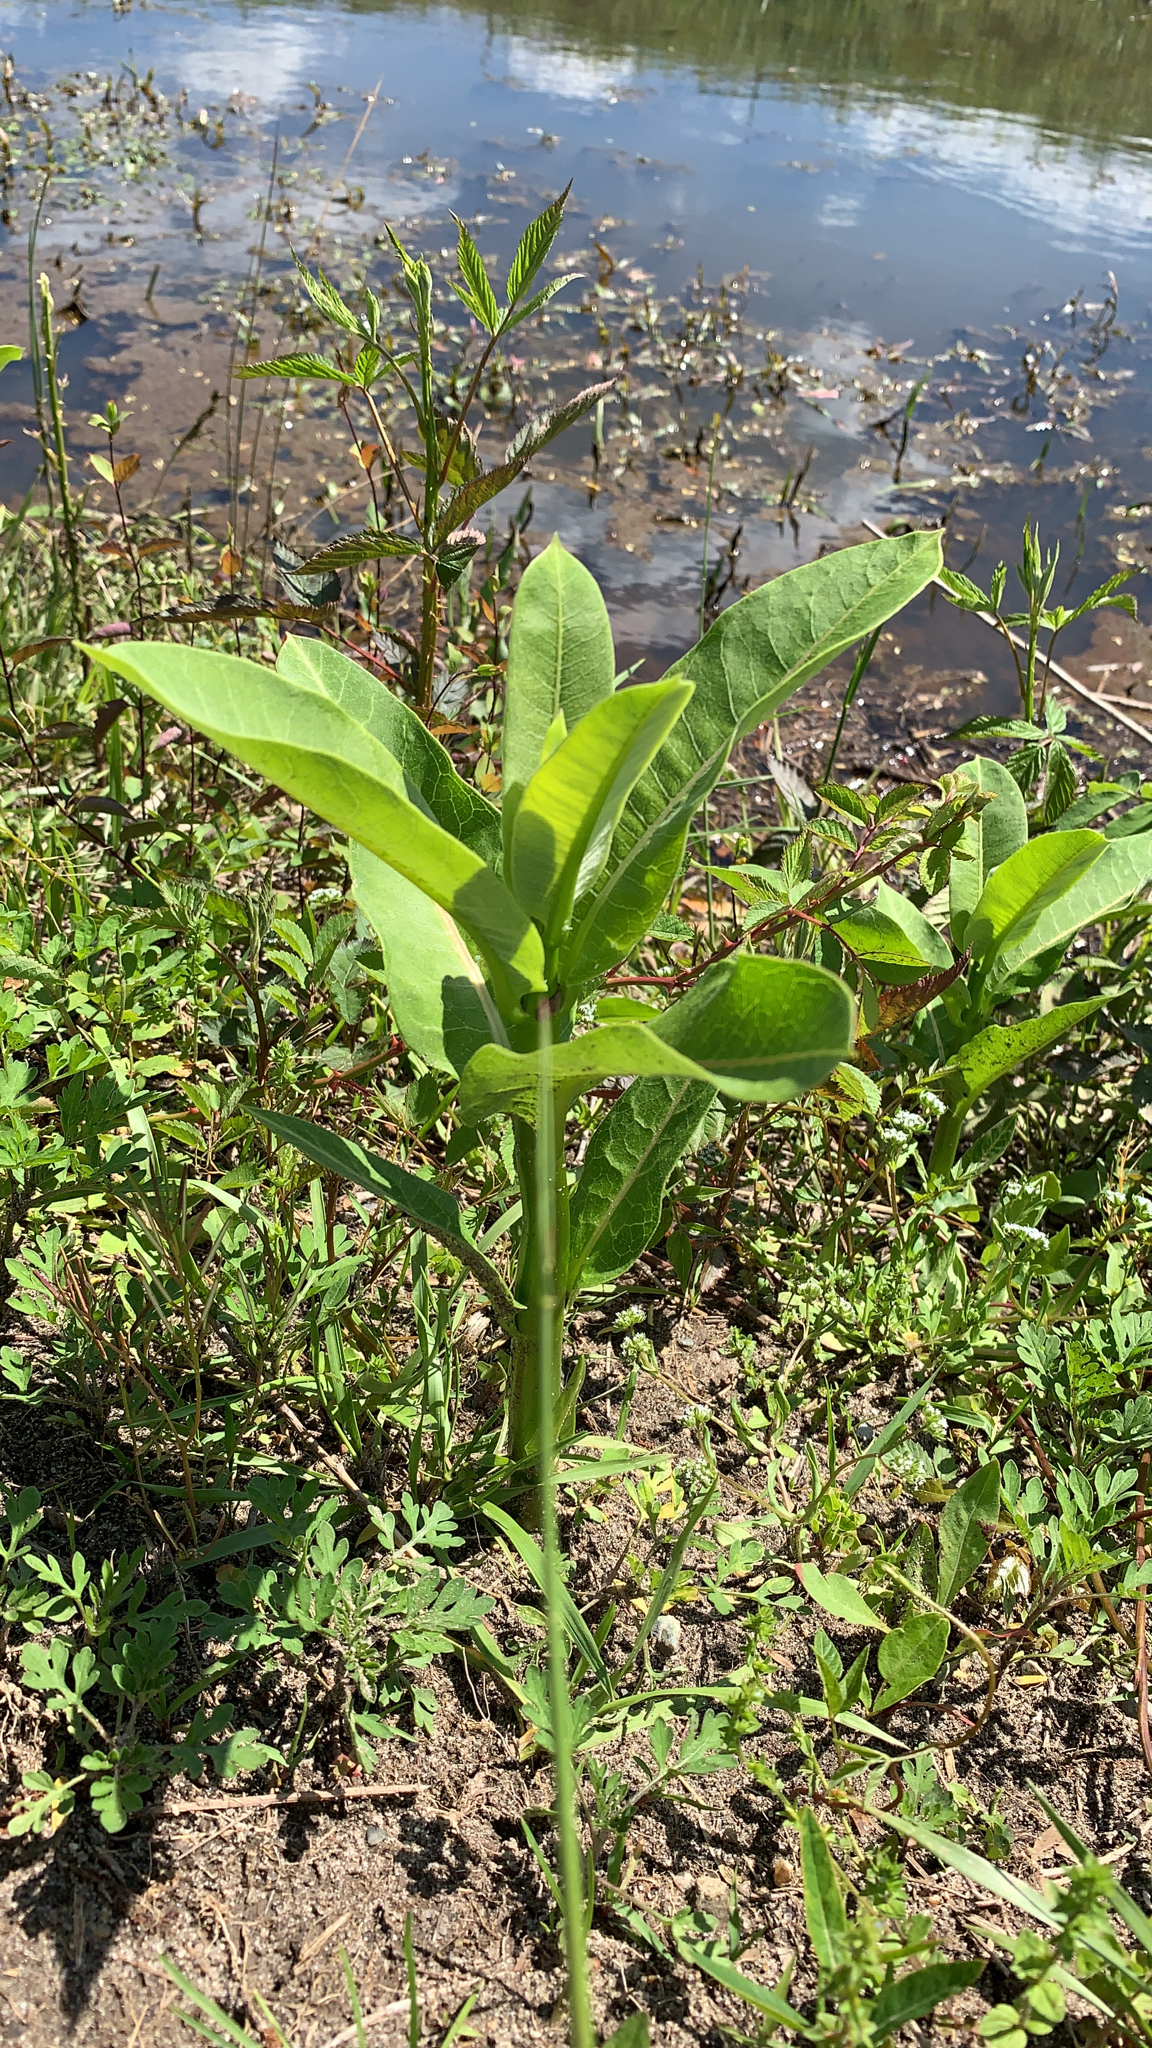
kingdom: Plantae
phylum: Tracheophyta
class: Magnoliopsida
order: Gentianales
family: Apocynaceae
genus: Asclepias
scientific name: Asclepias syriaca
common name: Common milkweed
